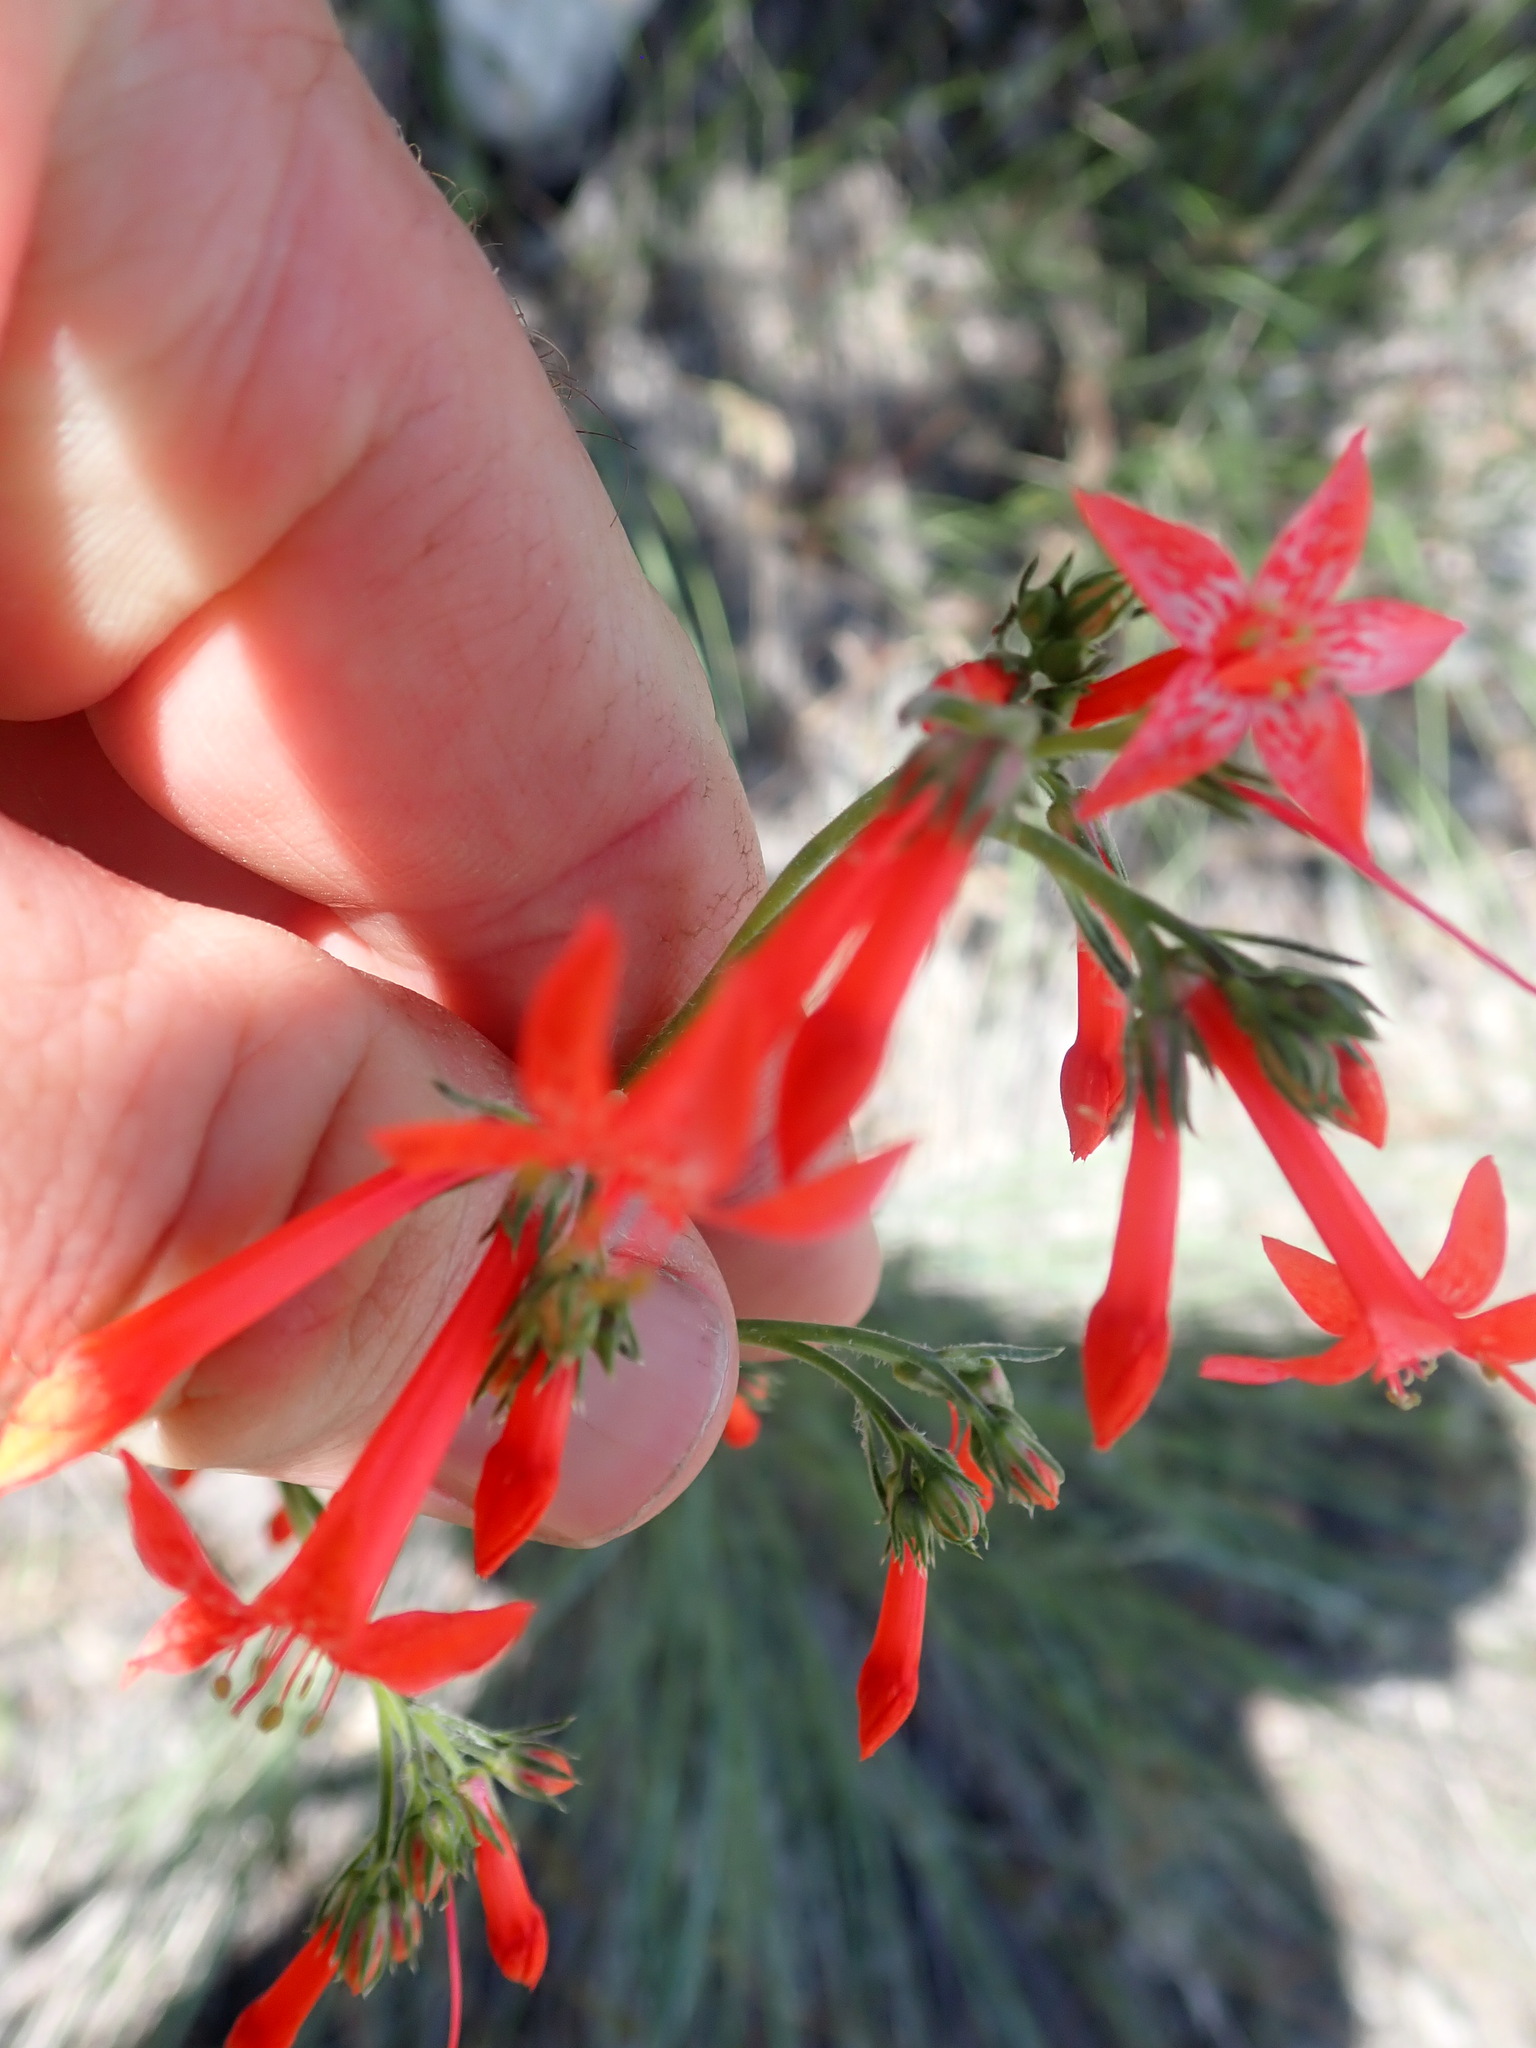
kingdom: Plantae
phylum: Tracheophyta
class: Magnoliopsida
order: Ericales
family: Polemoniaceae
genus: Ipomopsis
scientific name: Ipomopsis aggregata
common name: Scarlet gilia
